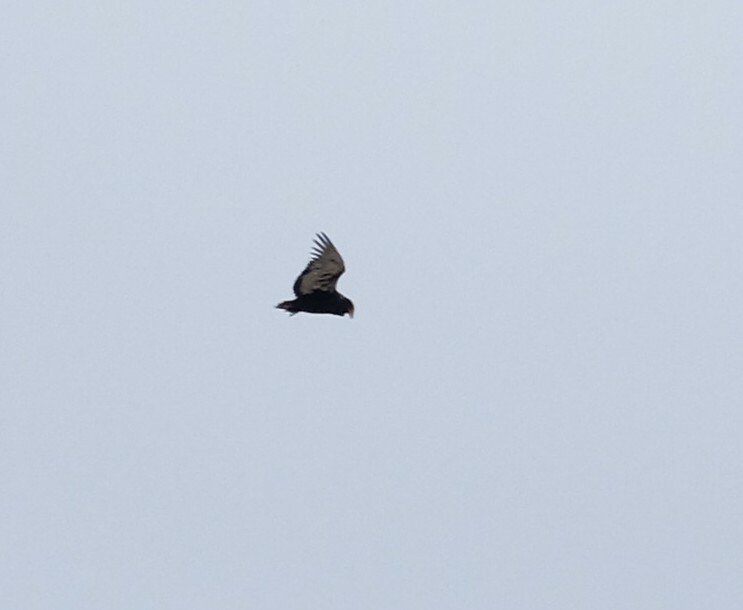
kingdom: Animalia
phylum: Chordata
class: Aves
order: Accipitriformes
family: Accipitridae
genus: Terathopius
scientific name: Terathopius ecaudatus
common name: Bateleur
